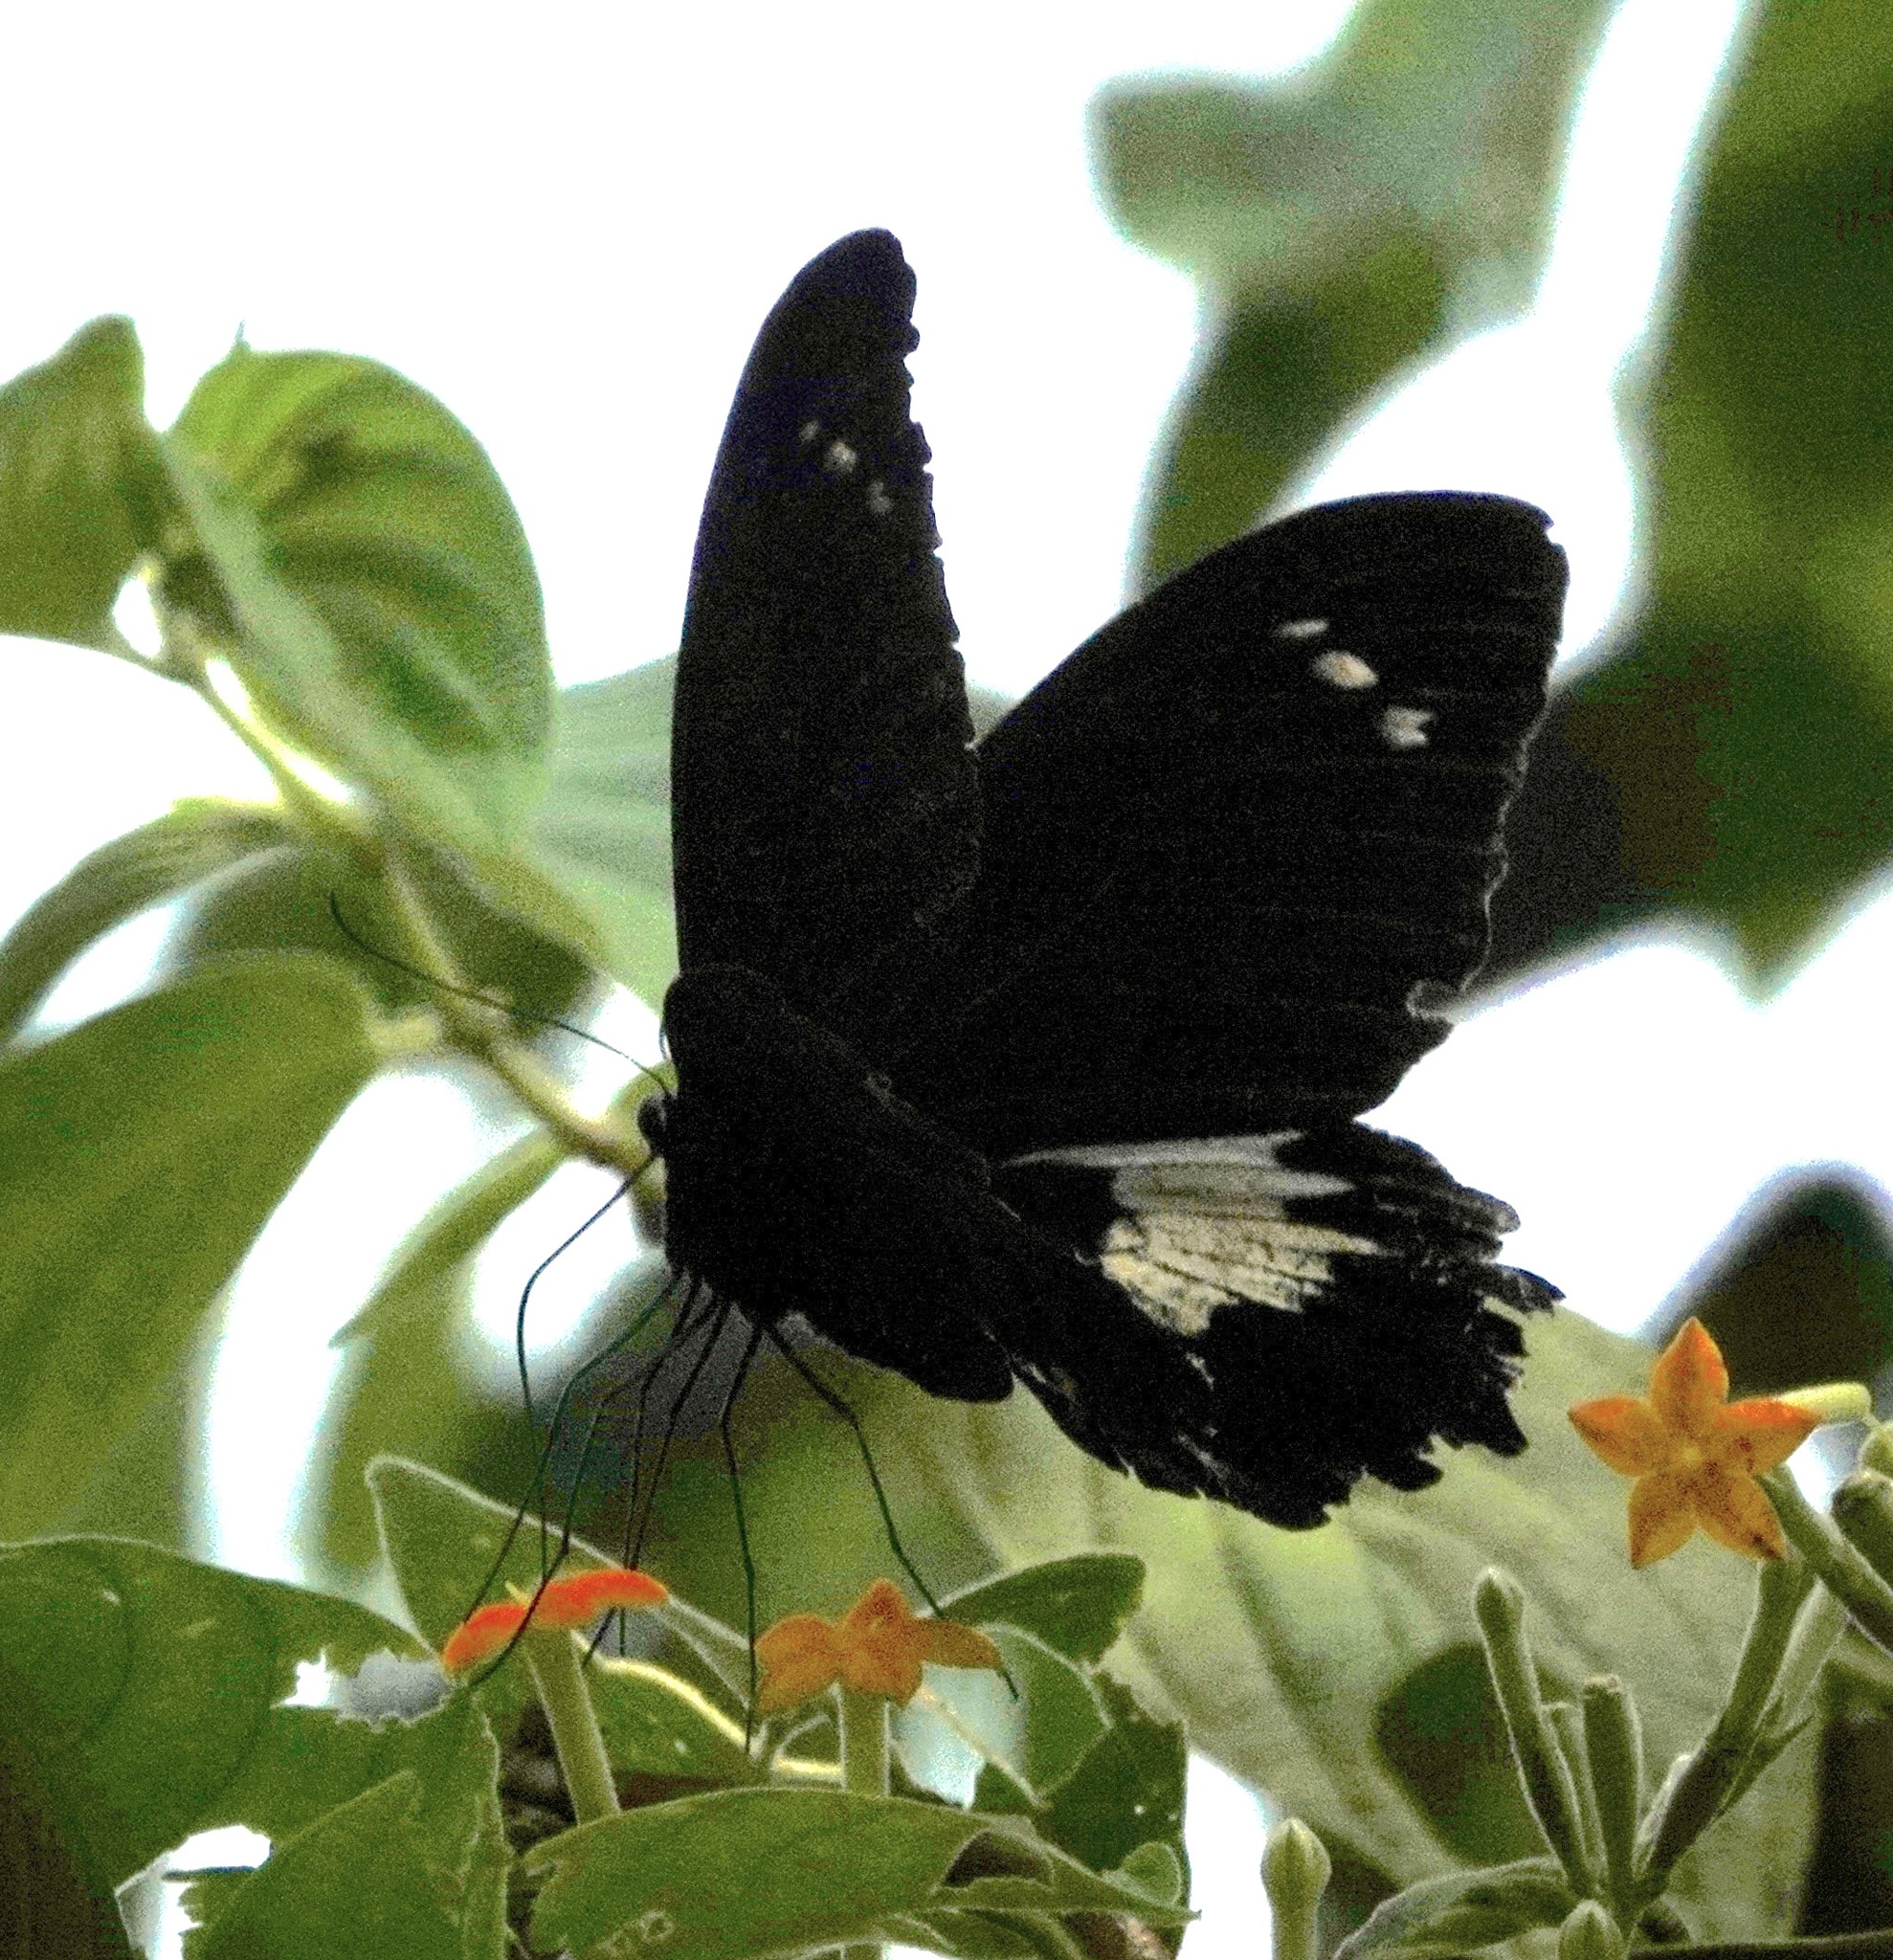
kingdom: Animalia
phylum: Arthropoda
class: Insecta
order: Lepidoptera
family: Papilionidae
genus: Papilio
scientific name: Papilio gambrisius
